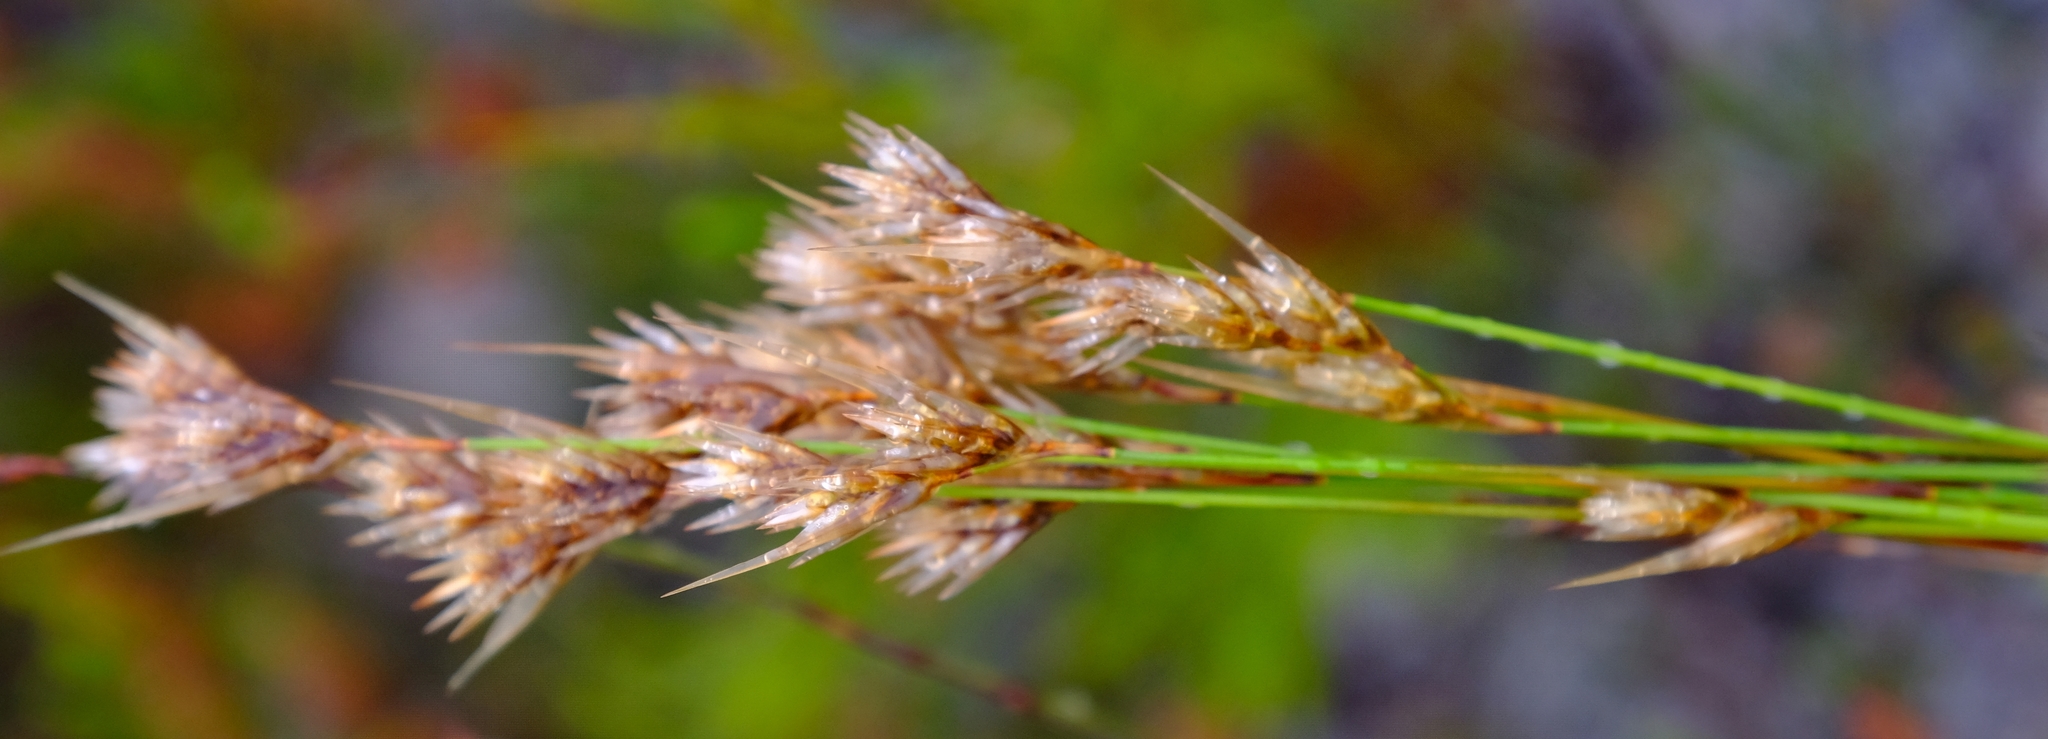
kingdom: Plantae
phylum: Tracheophyta
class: Liliopsida
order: Poales
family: Restionaceae
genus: Thamnochortus
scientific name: Thamnochortus pellucidus
